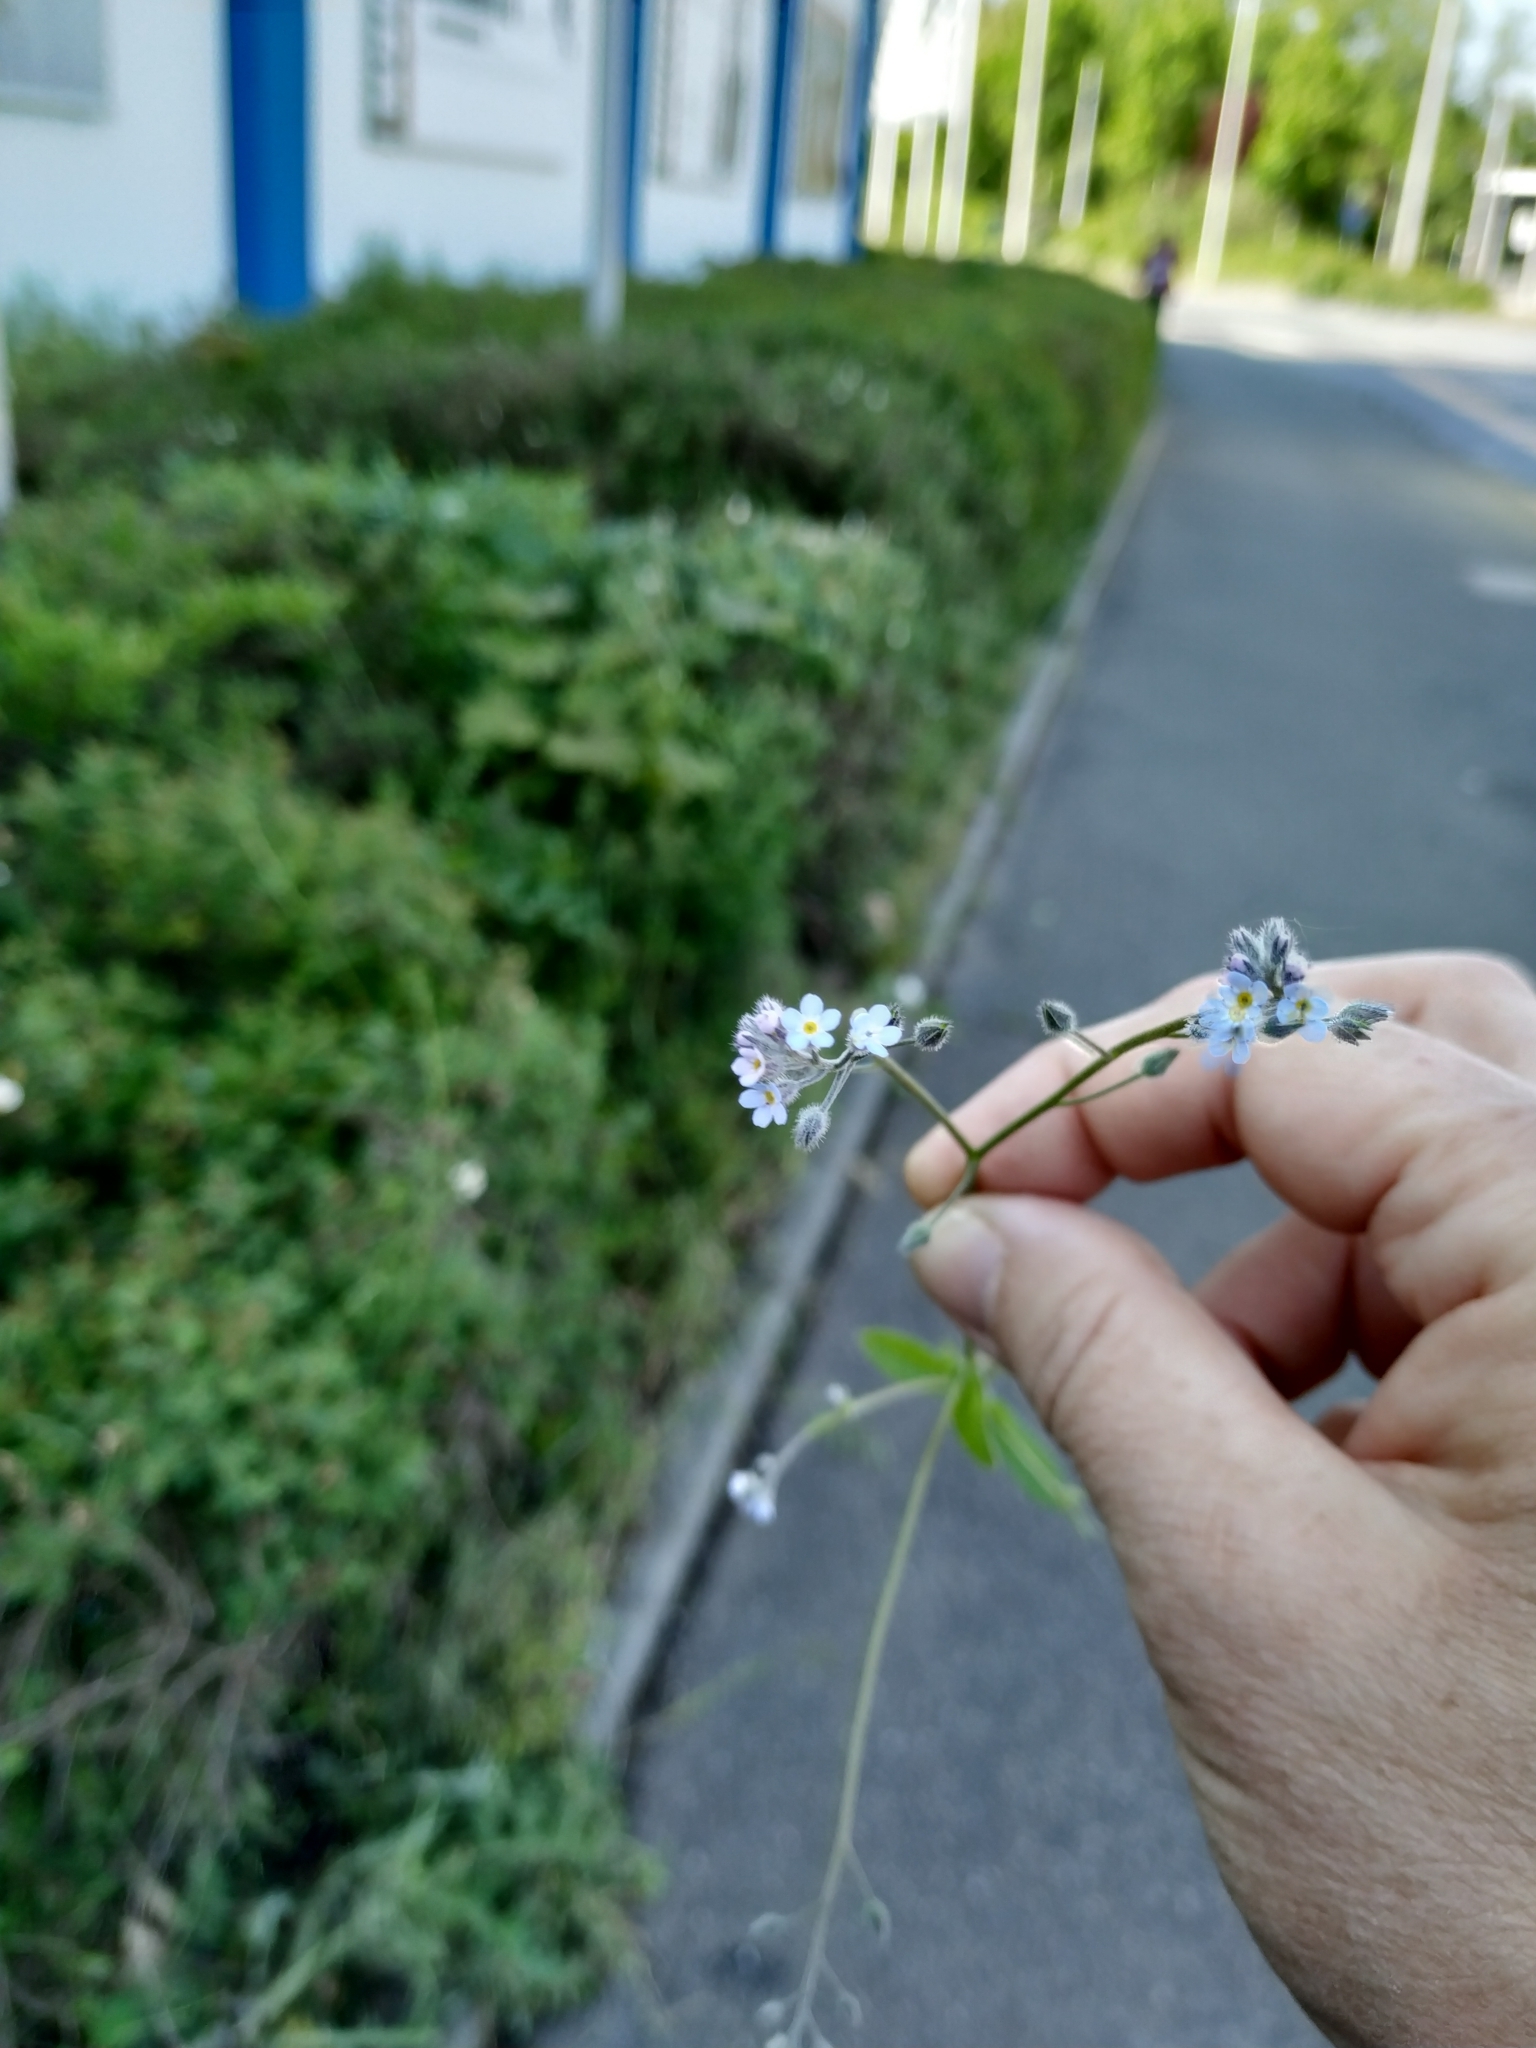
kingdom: Plantae
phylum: Tracheophyta
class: Magnoliopsida
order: Boraginales
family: Boraginaceae
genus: Myosotis
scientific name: Myosotis arvensis
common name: Field forget-me-not
